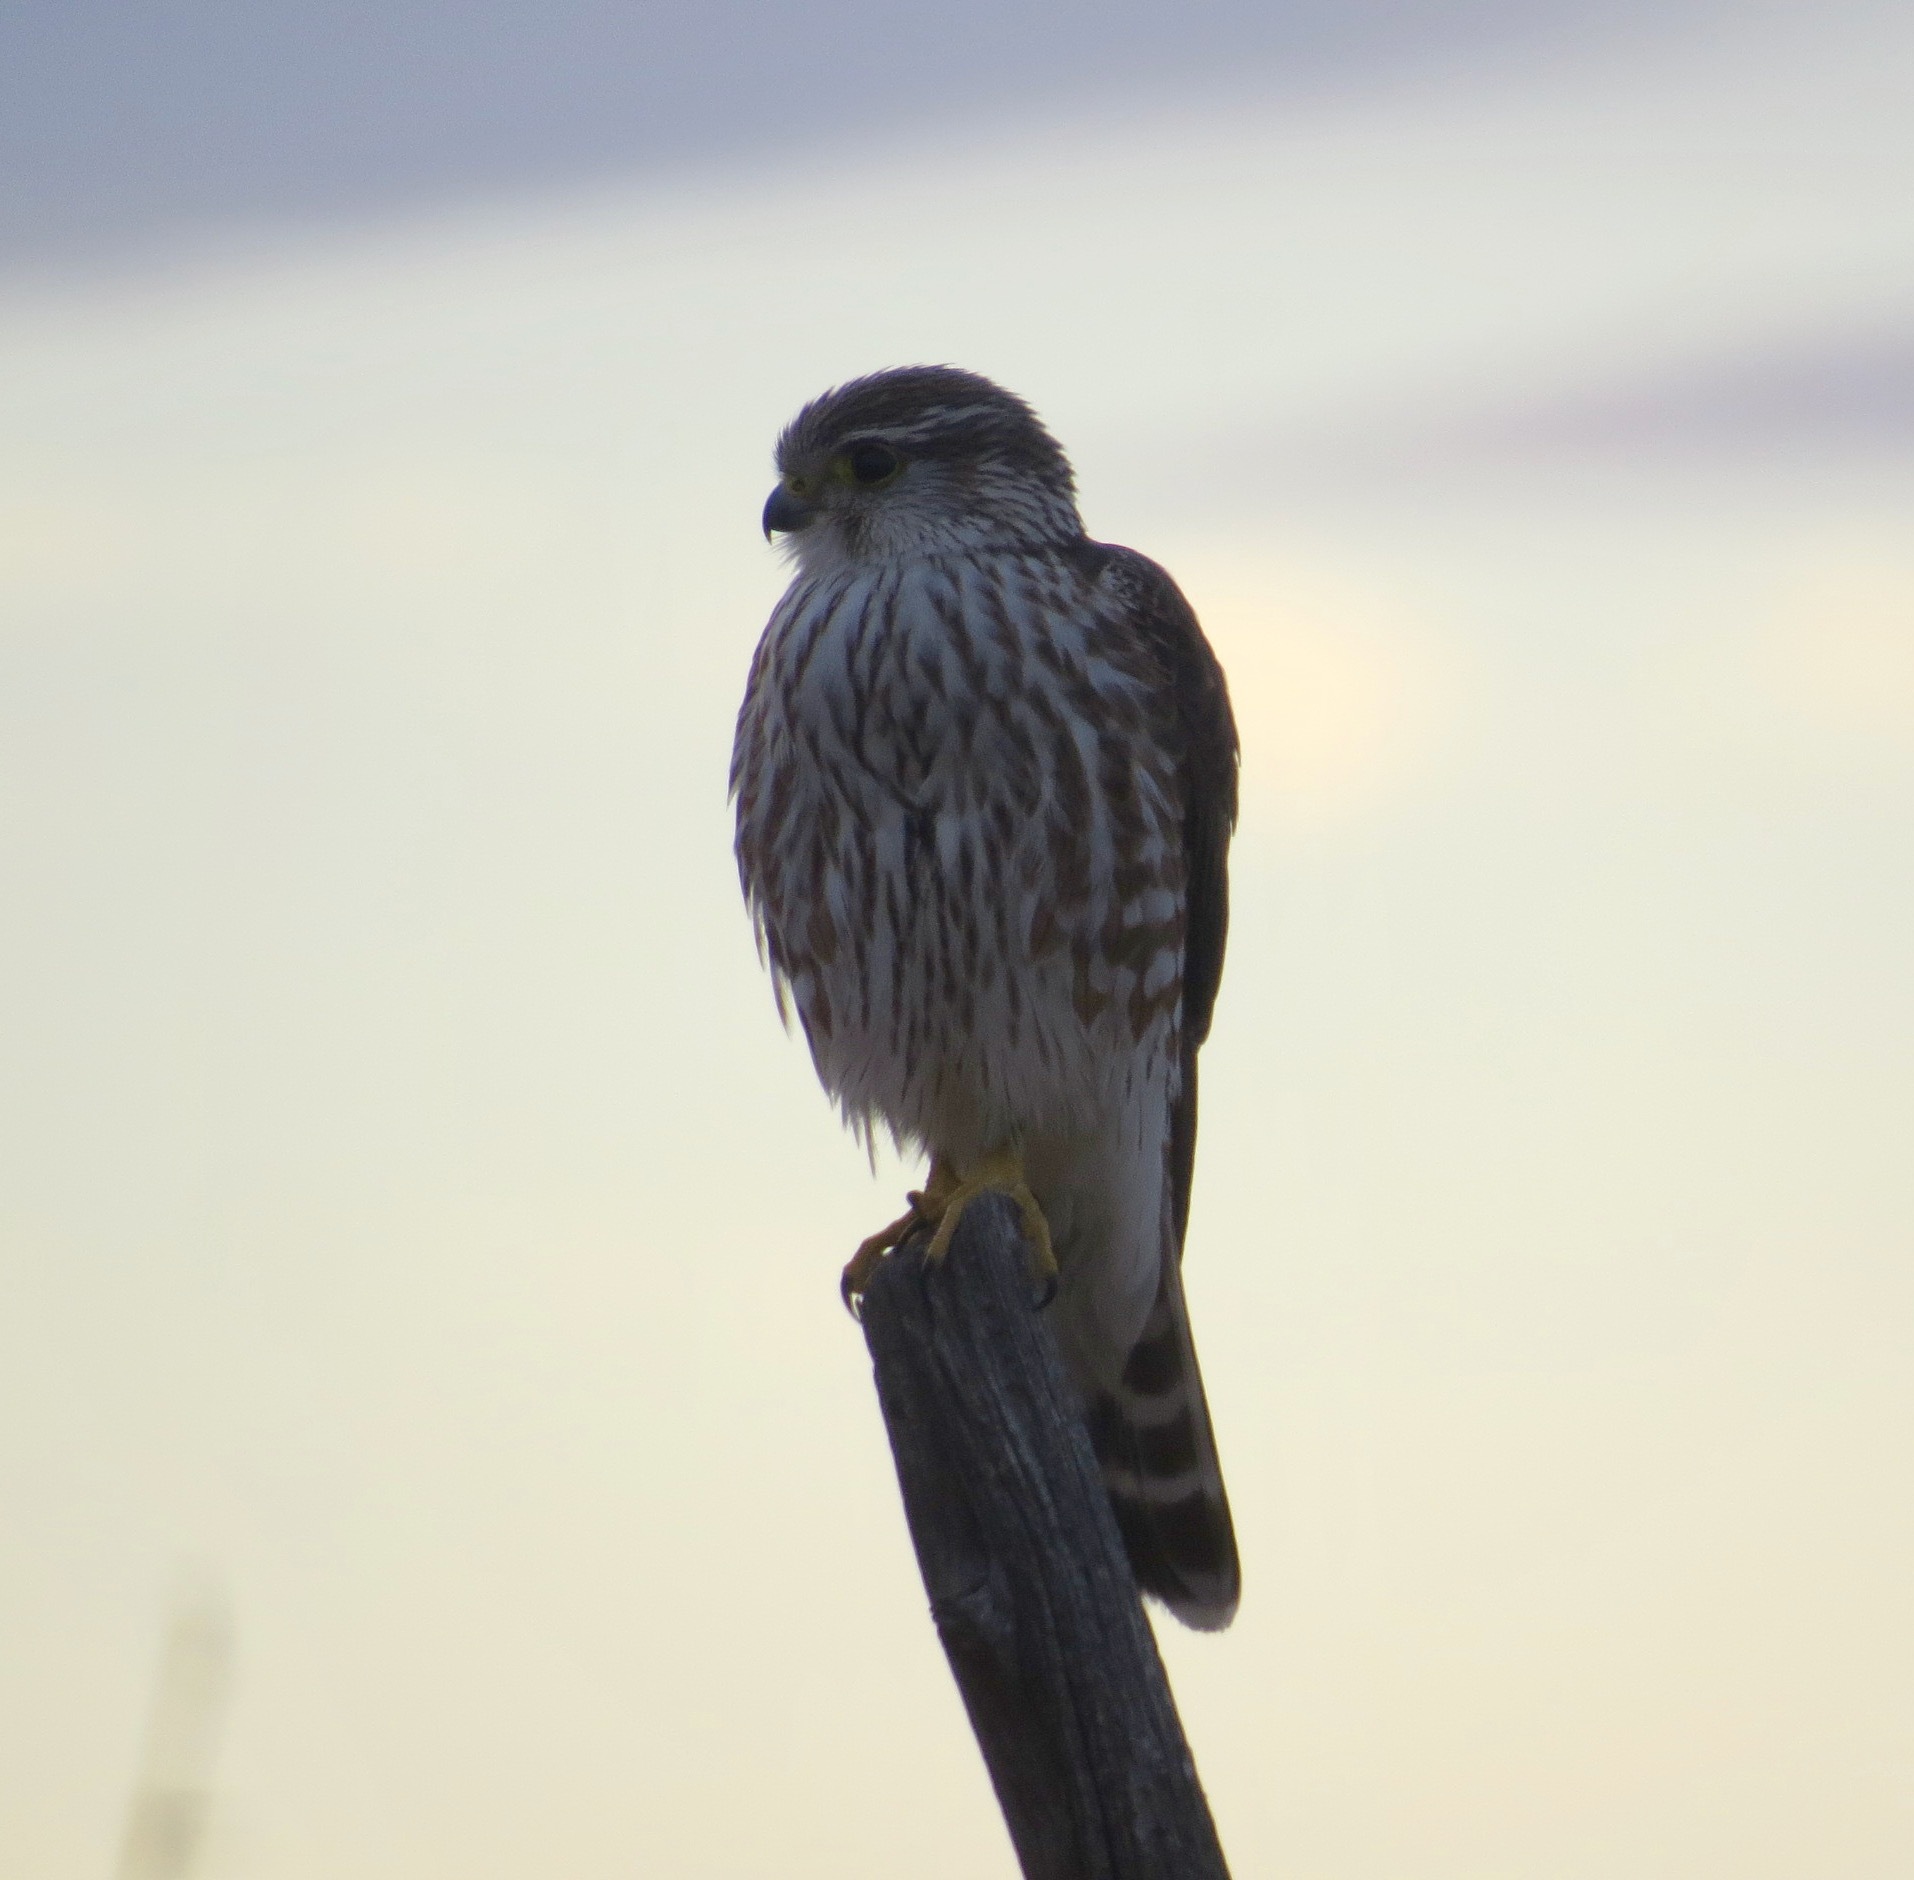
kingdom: Animalia
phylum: Chordata
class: Aves
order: Falconiformes
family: Falconidae
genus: Falco
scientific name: Falco columbarius
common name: Merlin
